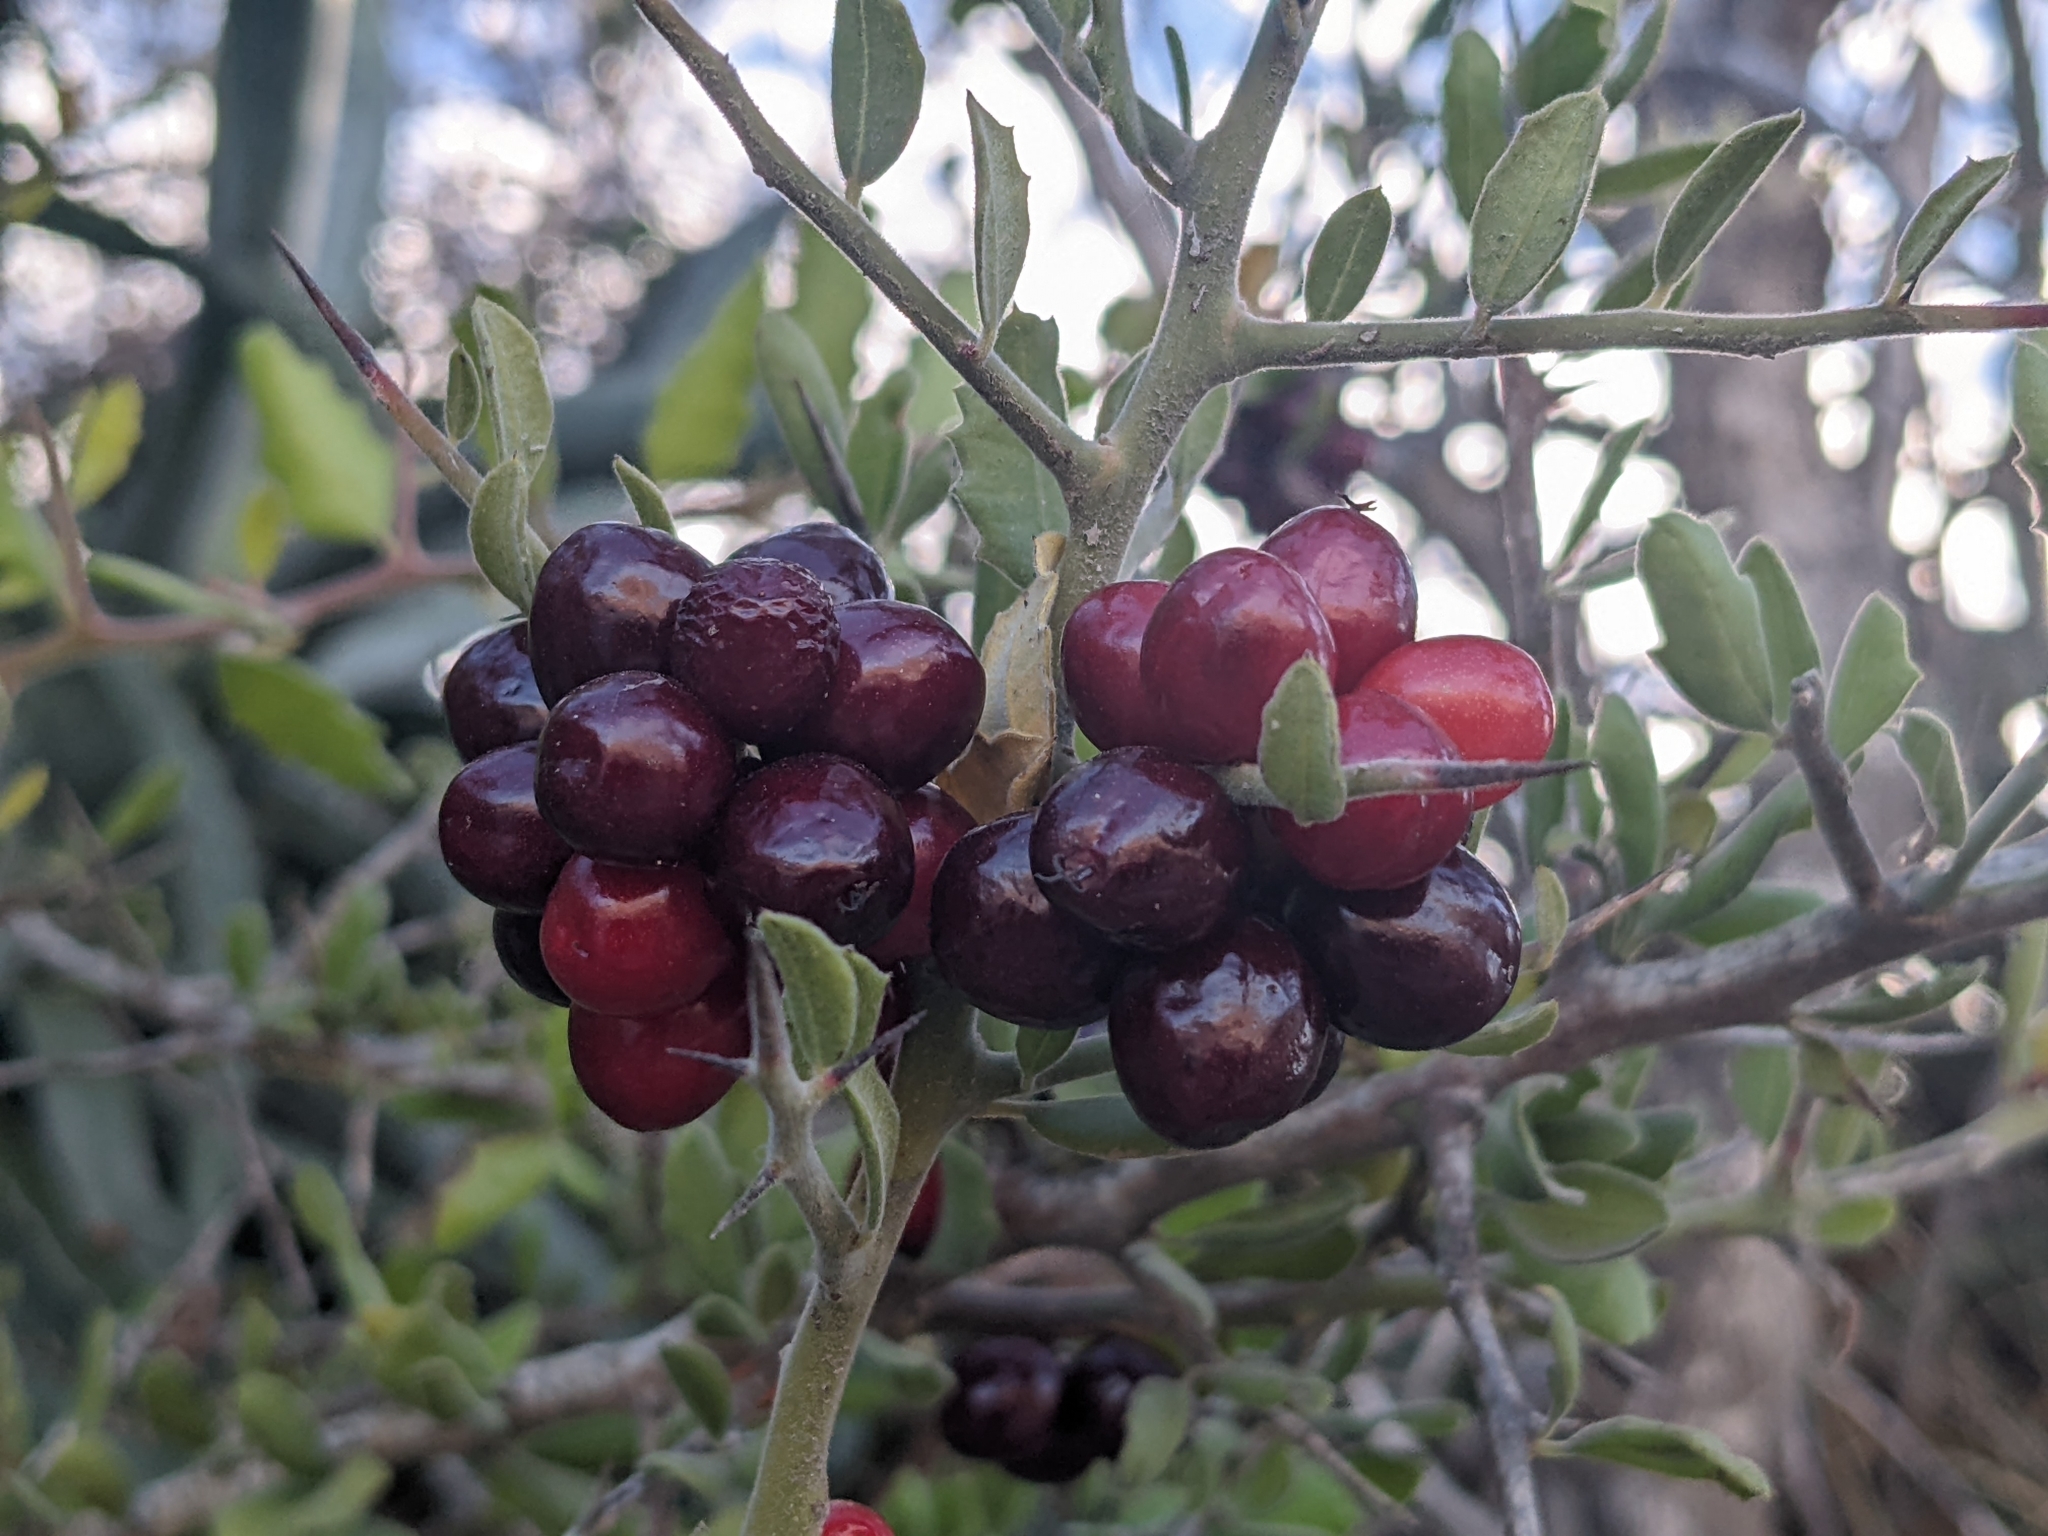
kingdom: Plantae
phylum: Tracheophyta
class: Magnoliopsida
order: Sapindales
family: Simaroubaceae
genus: Castela
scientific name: Castela peninsularis
